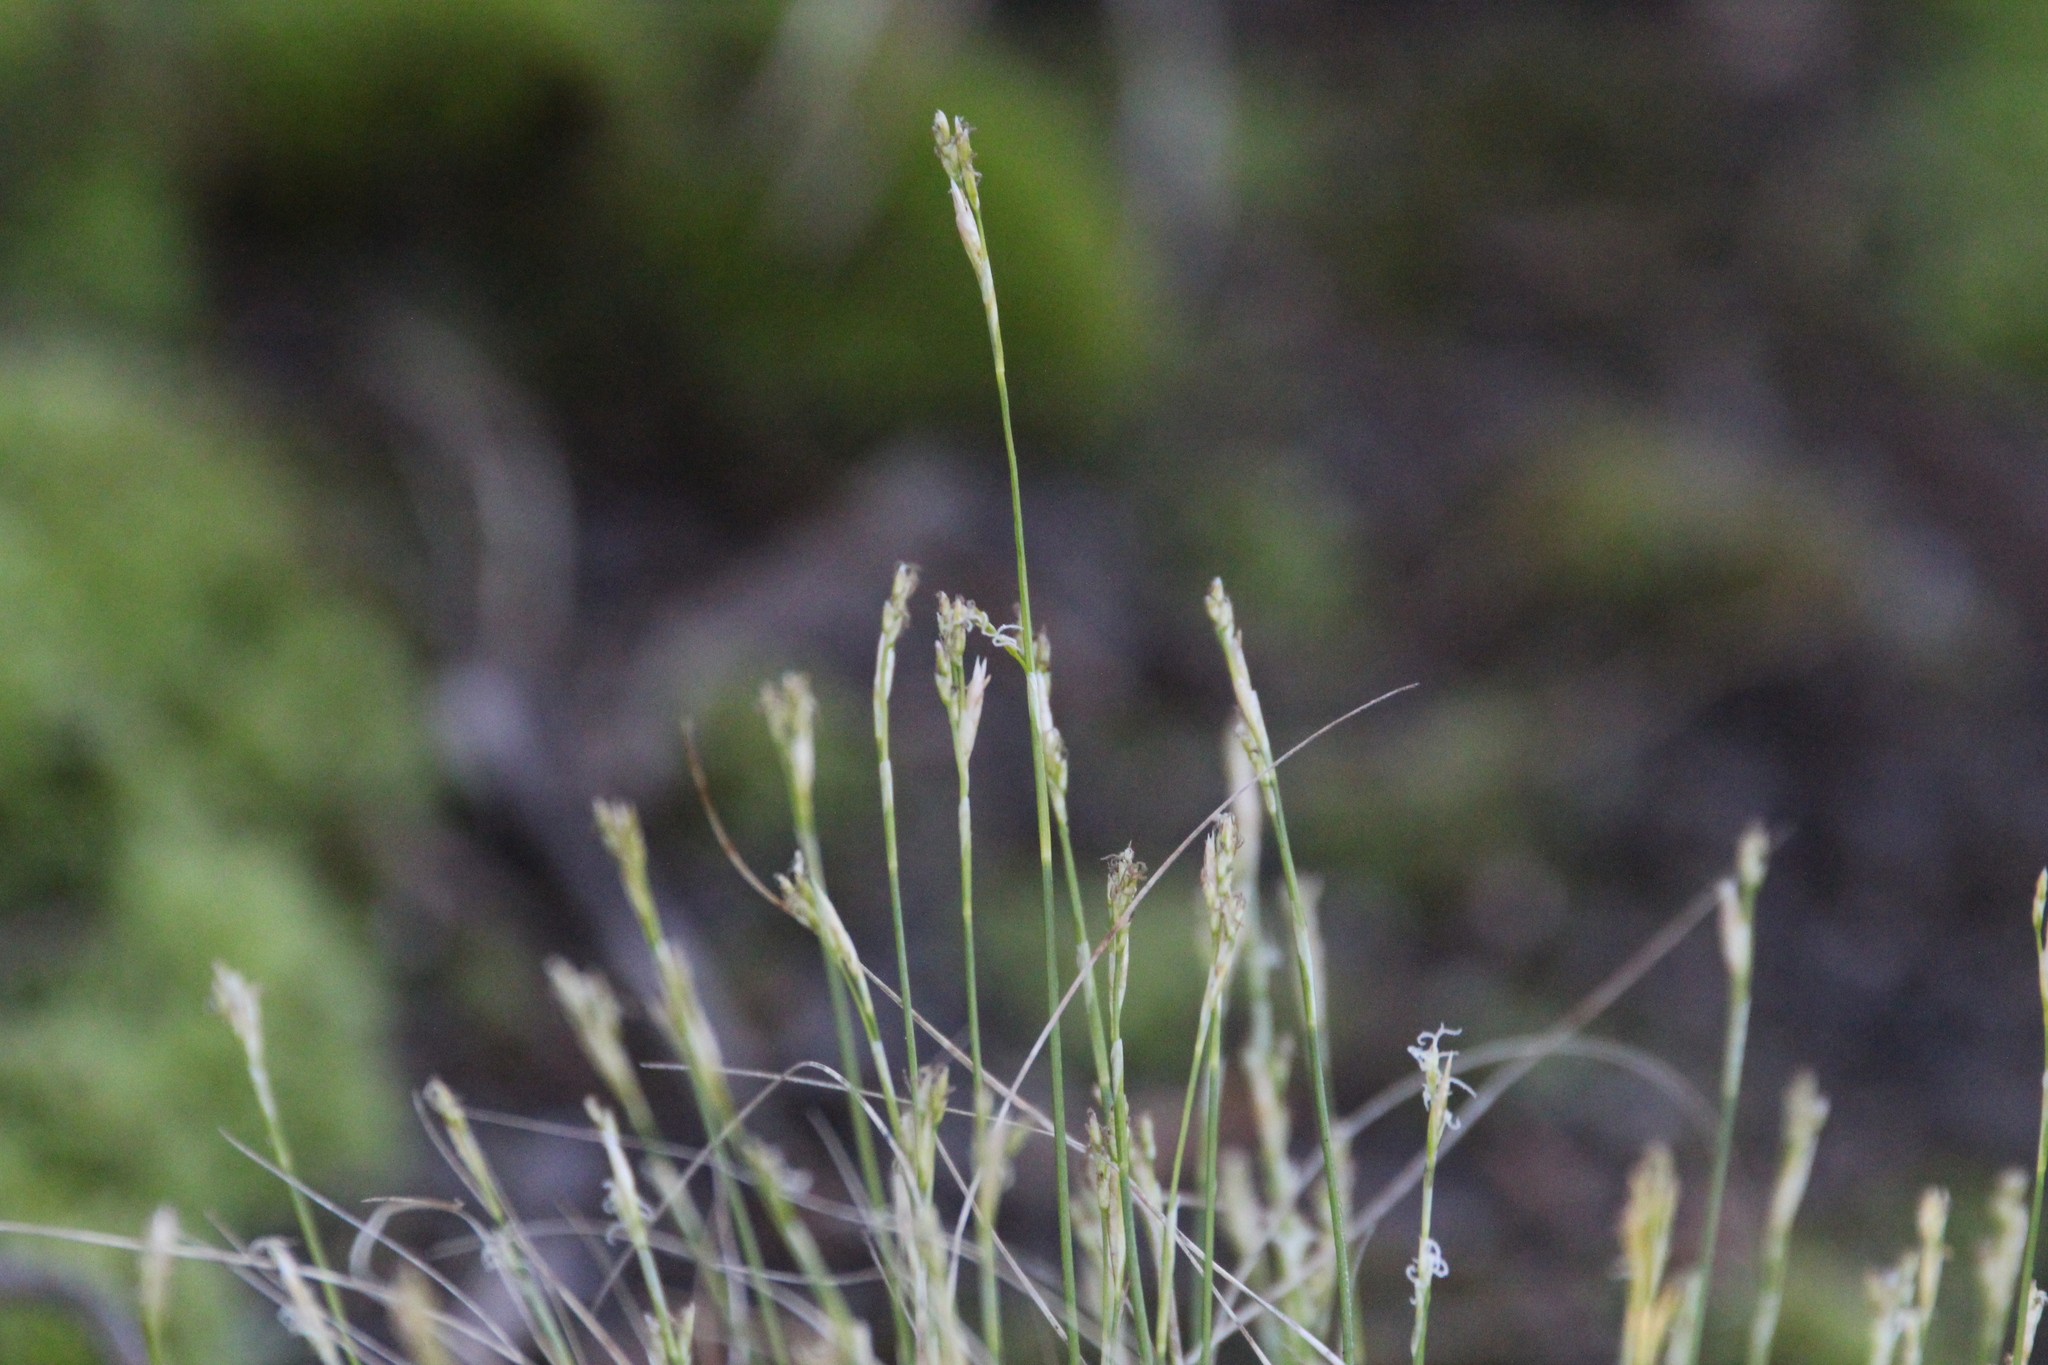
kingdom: Plantae
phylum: Tracheophyta
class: Liliopsida
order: Poales
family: Cyperaceae
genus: Carex
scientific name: Carex eburnea
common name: Bristle-leaved sedge
